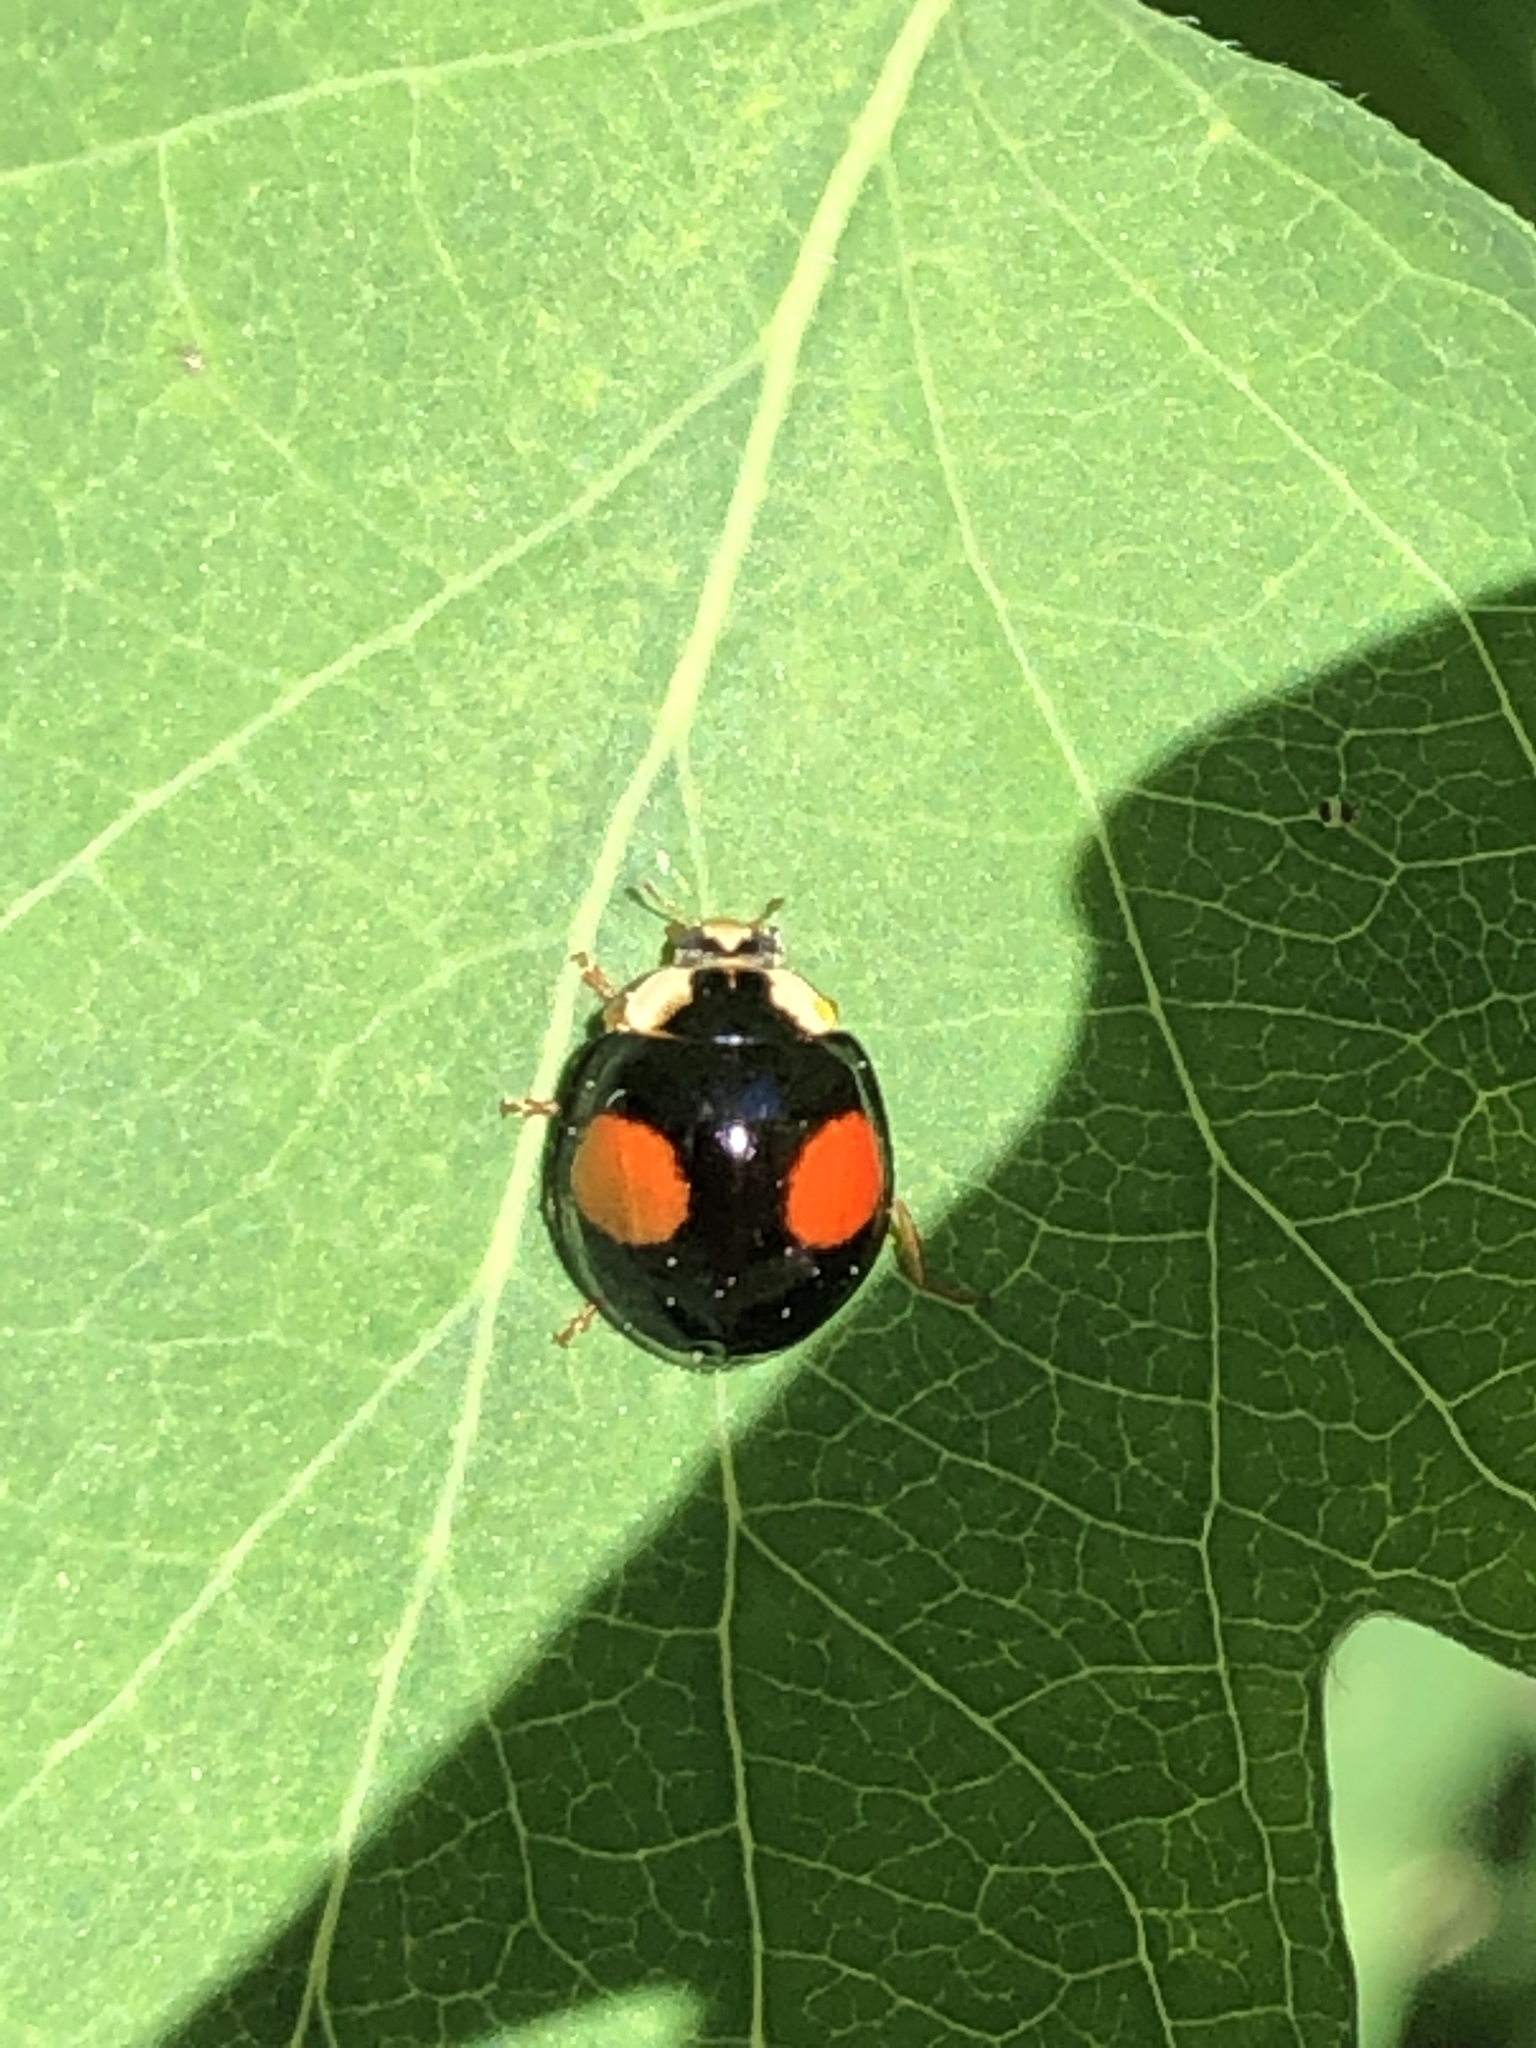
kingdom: Animalia
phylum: Arthropoda
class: Insecta
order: Coleoptera
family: Coccinellidae
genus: Harmonia
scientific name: Harmonia axyridis
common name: Harlequin ladybird
